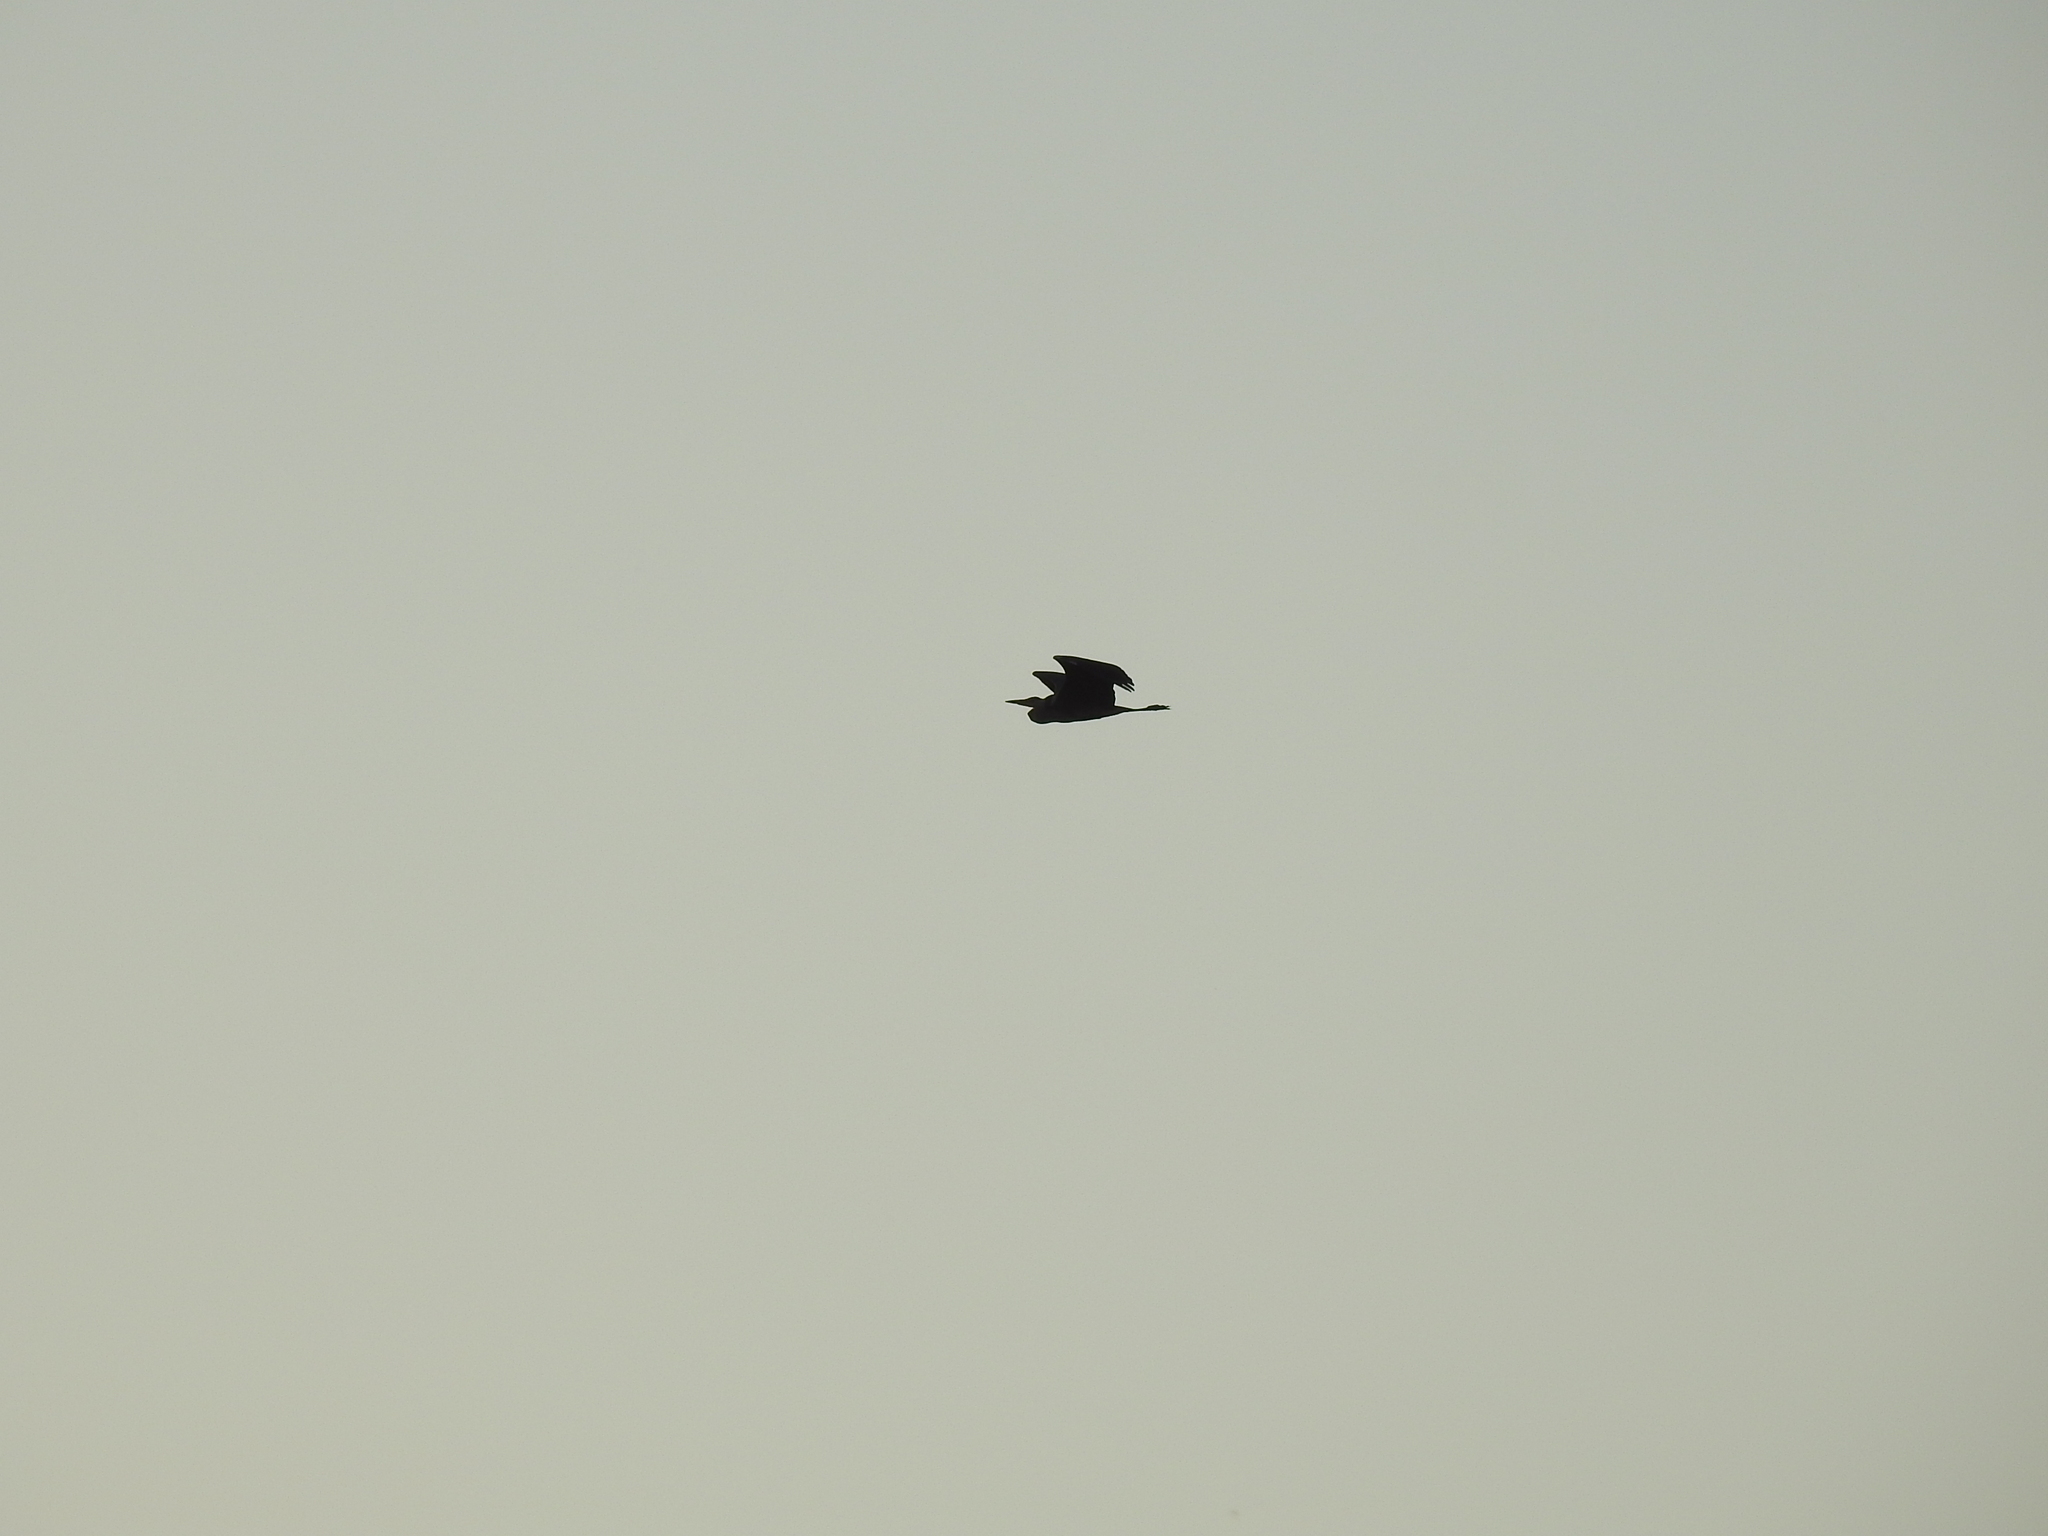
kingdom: Animalia
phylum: Chordata
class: Aves
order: Pelecaniformes
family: Ardeidae
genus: Ardea
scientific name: Ardea cinerea
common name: Grey heron
